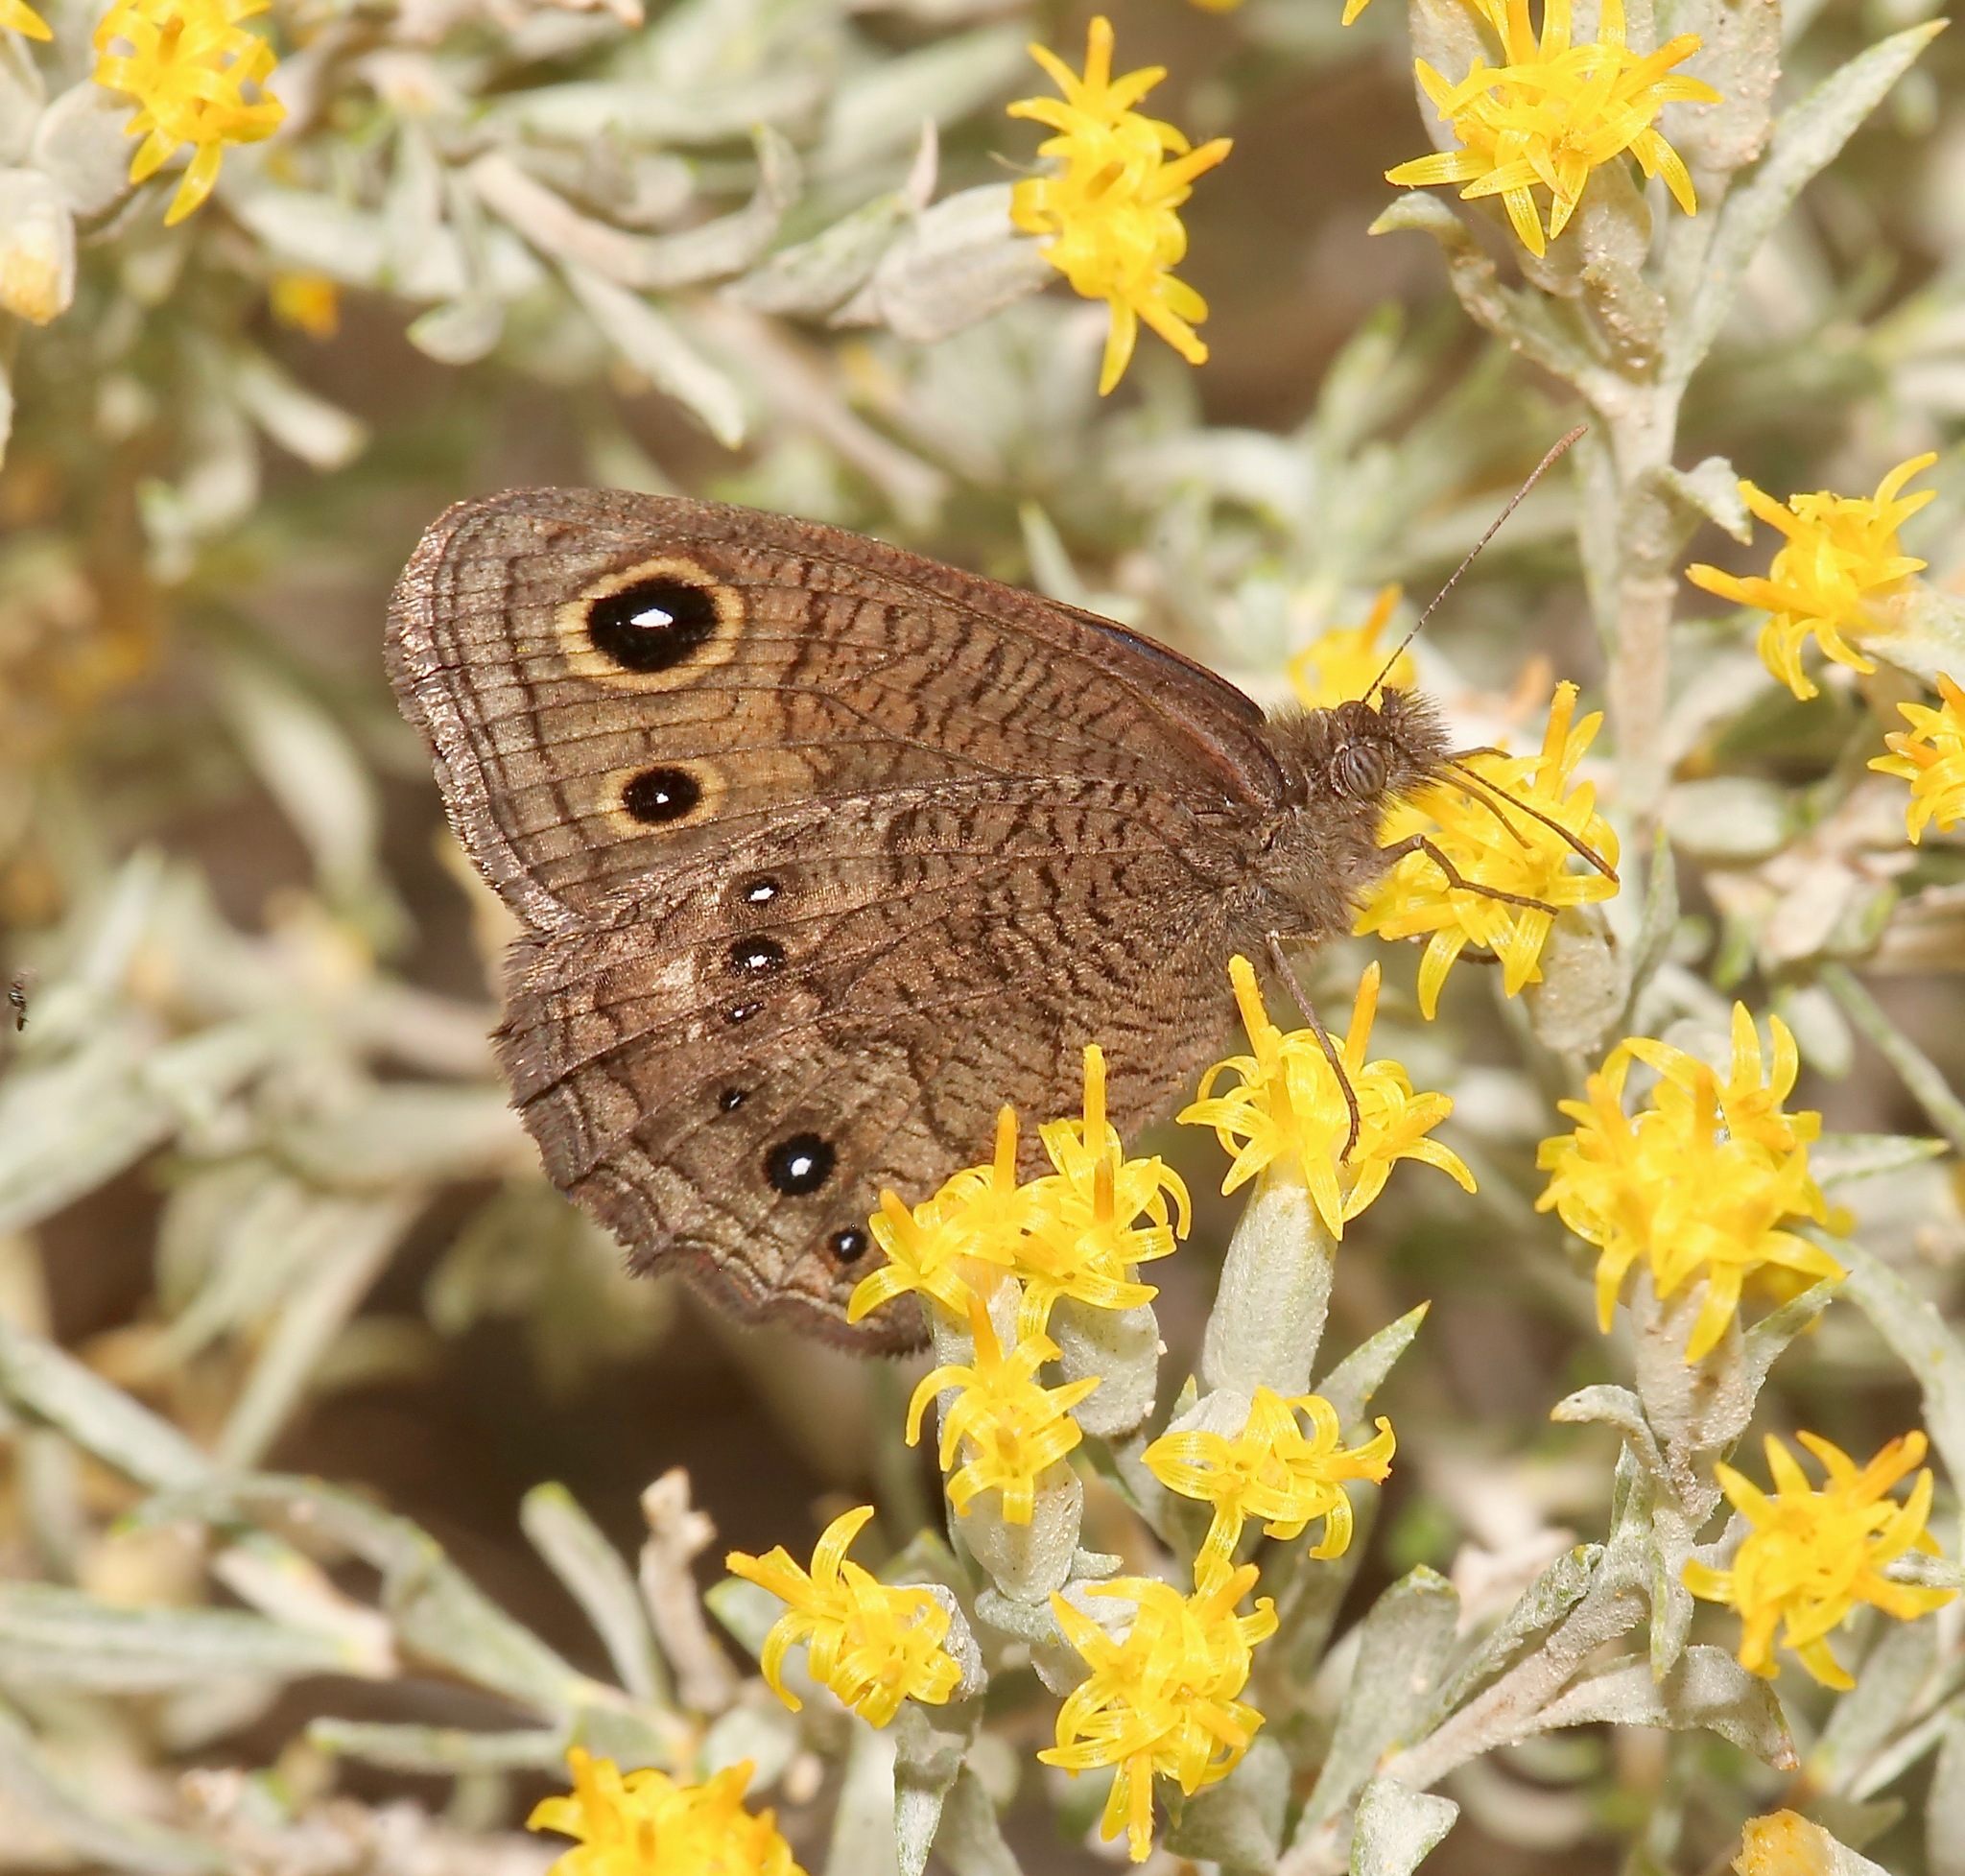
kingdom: Animalia
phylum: Arthropoda
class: Insecta
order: Lepidoptera
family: Nymphalidae
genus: Cercyonis
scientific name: Cercyonis sthenele
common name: Great basin wood-nymph
